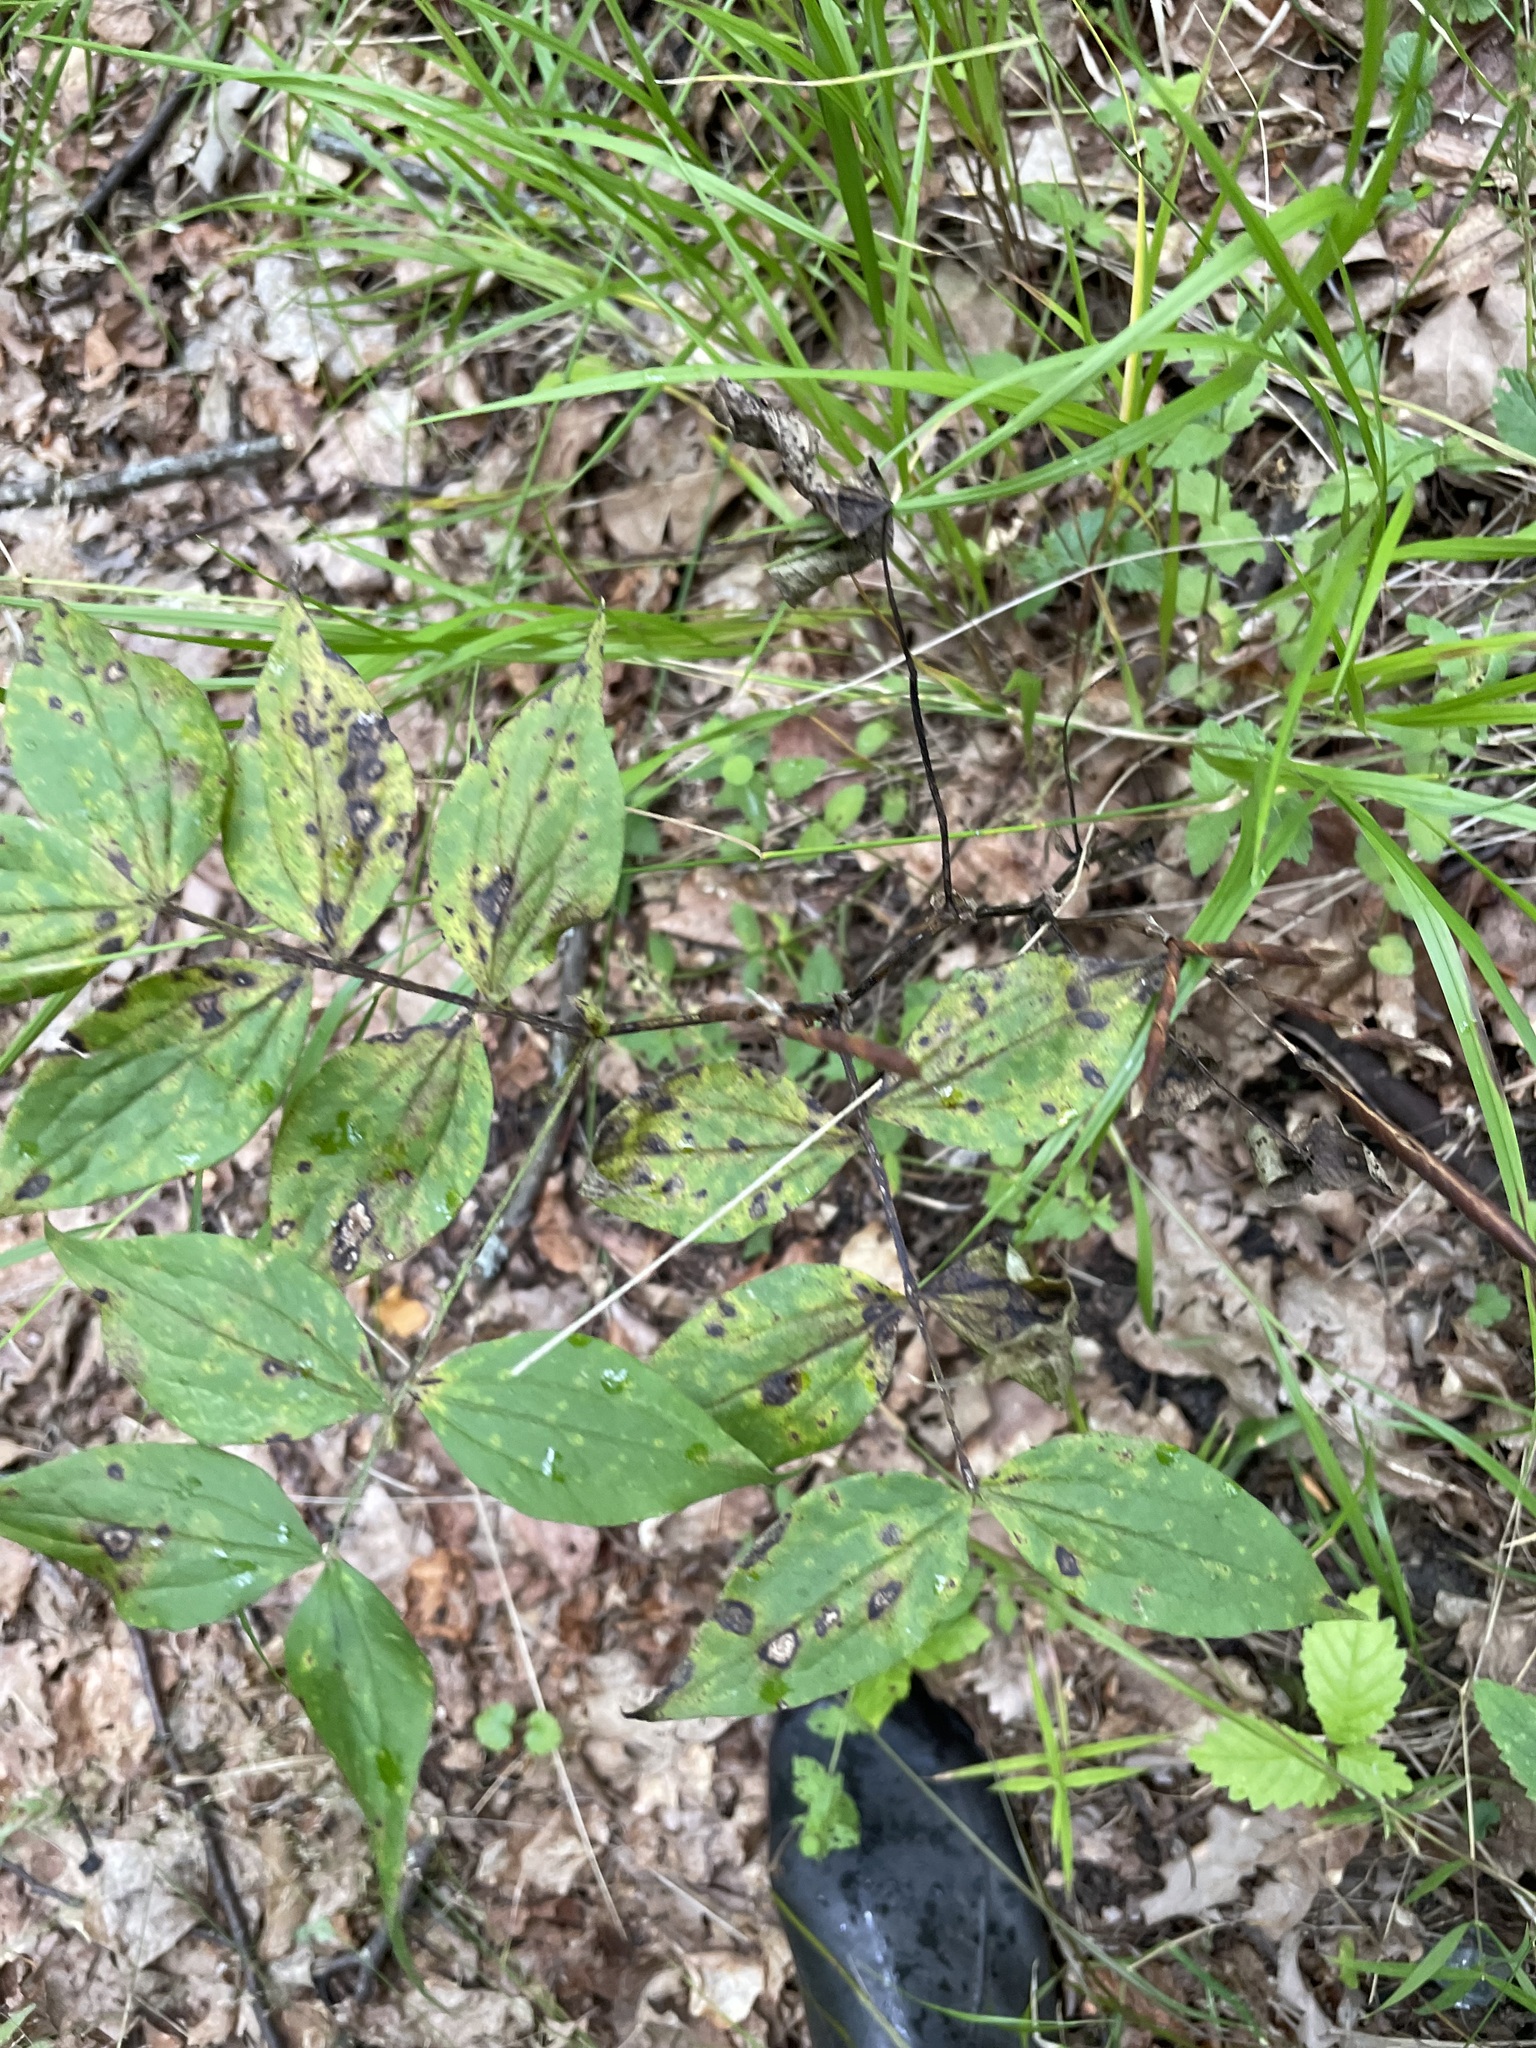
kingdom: Plantae
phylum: Tracheophyta
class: Magnoliopsida
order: Fabales
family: Fabaceae
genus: Lathyrus
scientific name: Lathyrus vernus
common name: Spring pea
